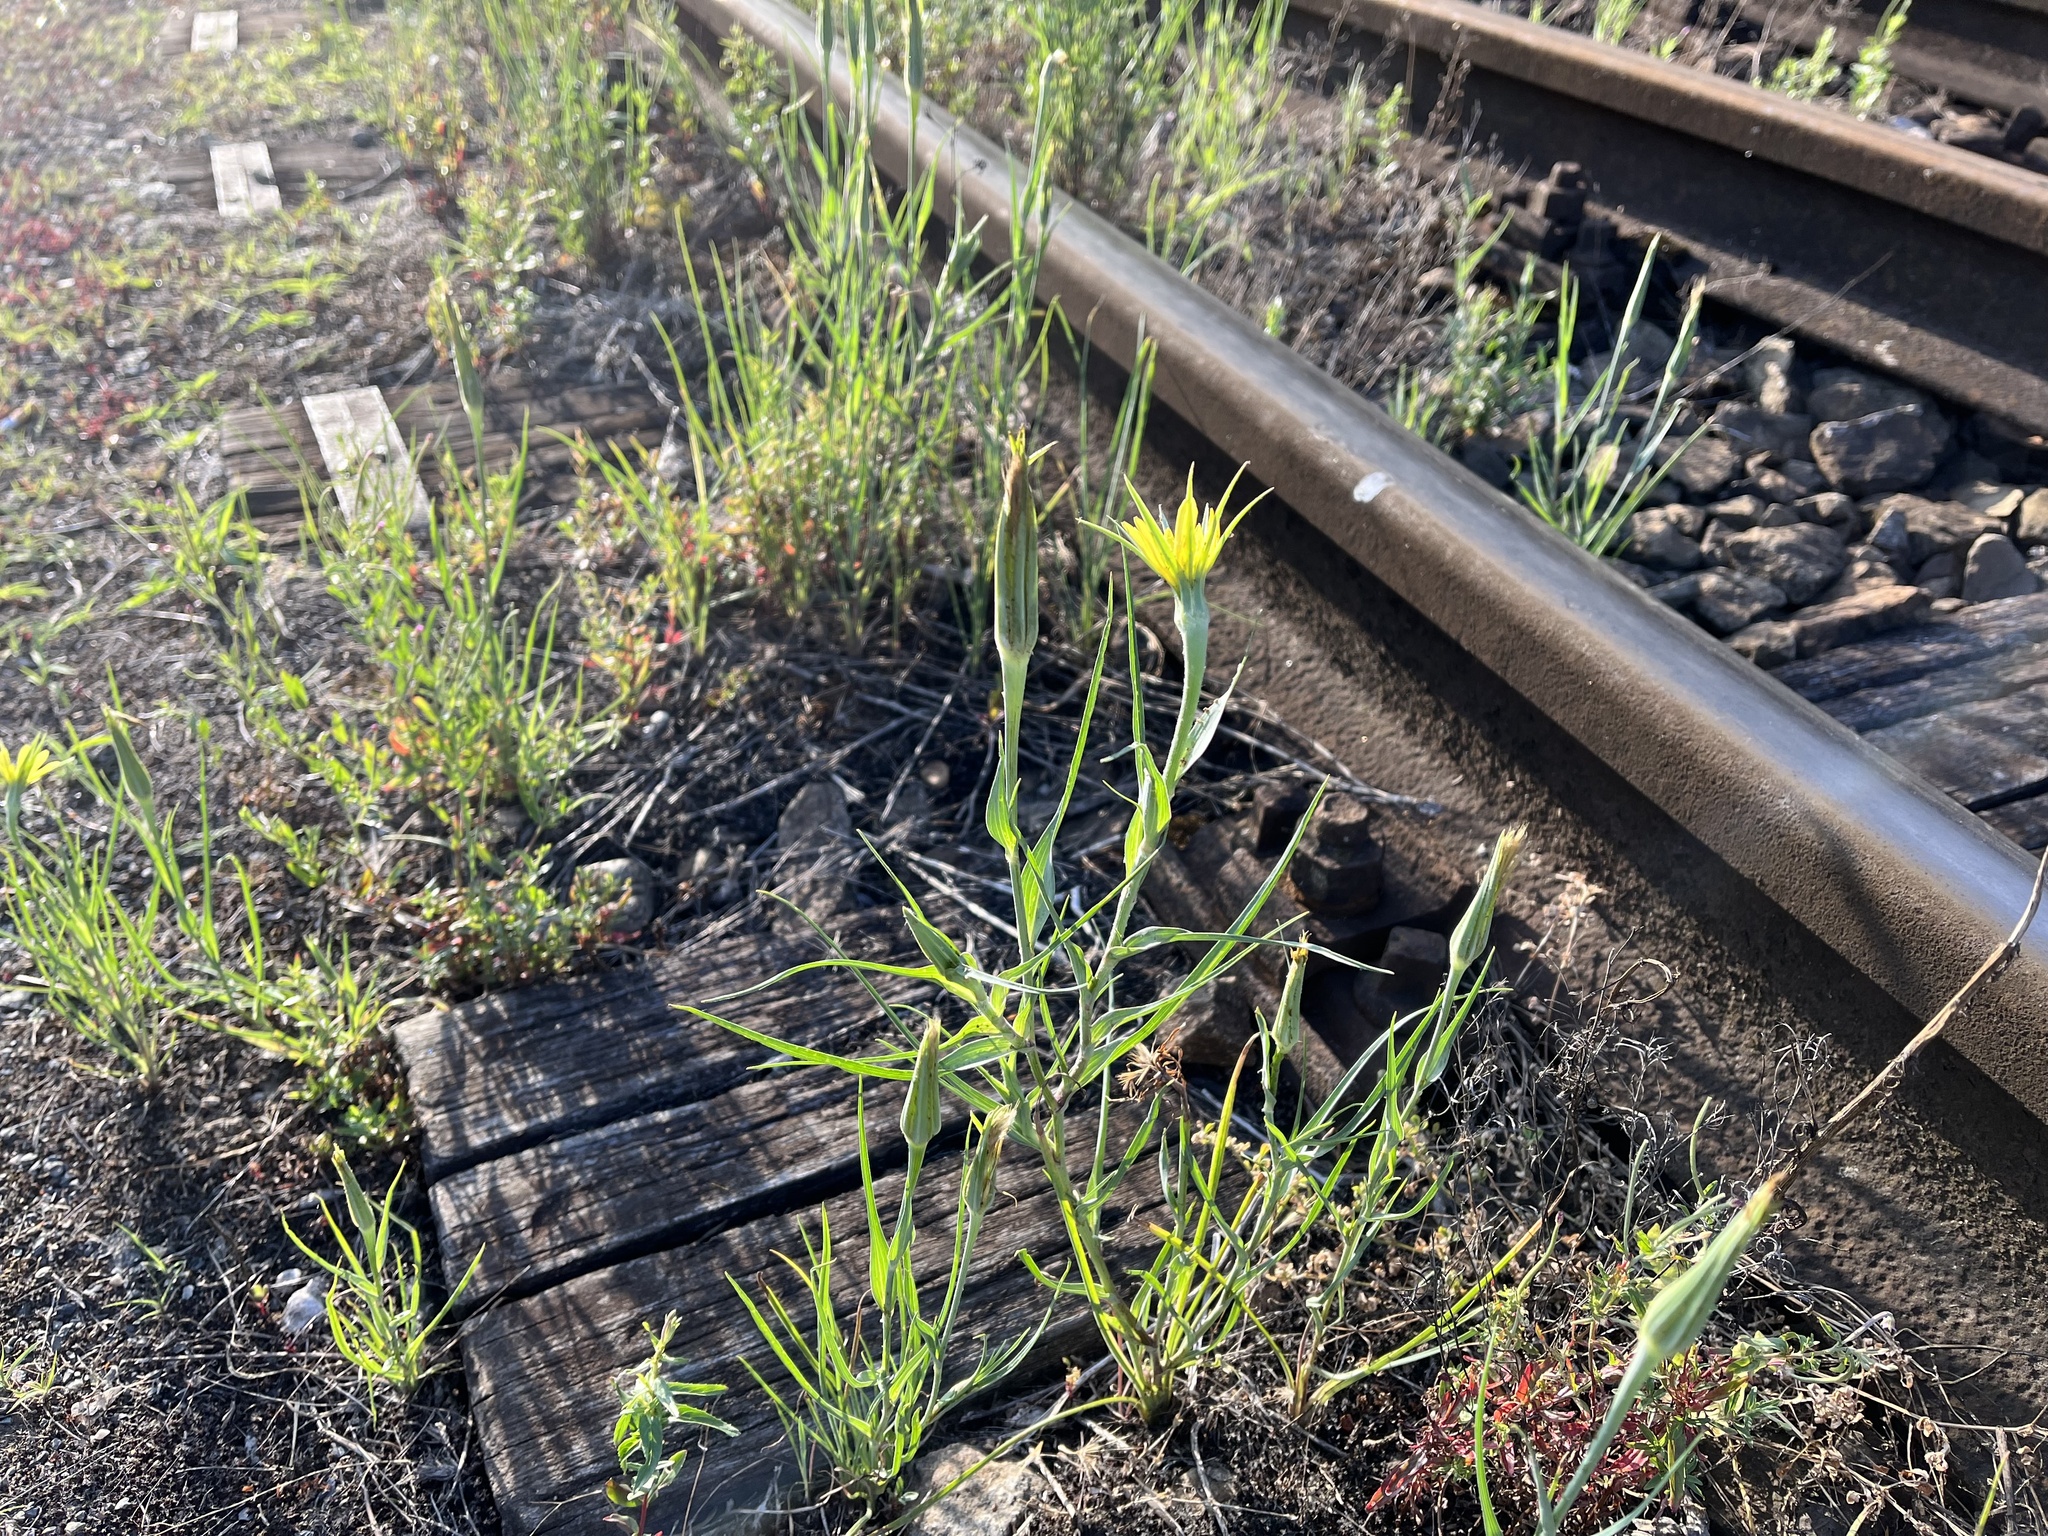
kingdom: Plantae
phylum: Tracheophyta
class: Magnoliopsida
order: Asterales
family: Asteraceae
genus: Tragopogon
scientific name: Tragopogon dubius
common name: Yellow salsify
